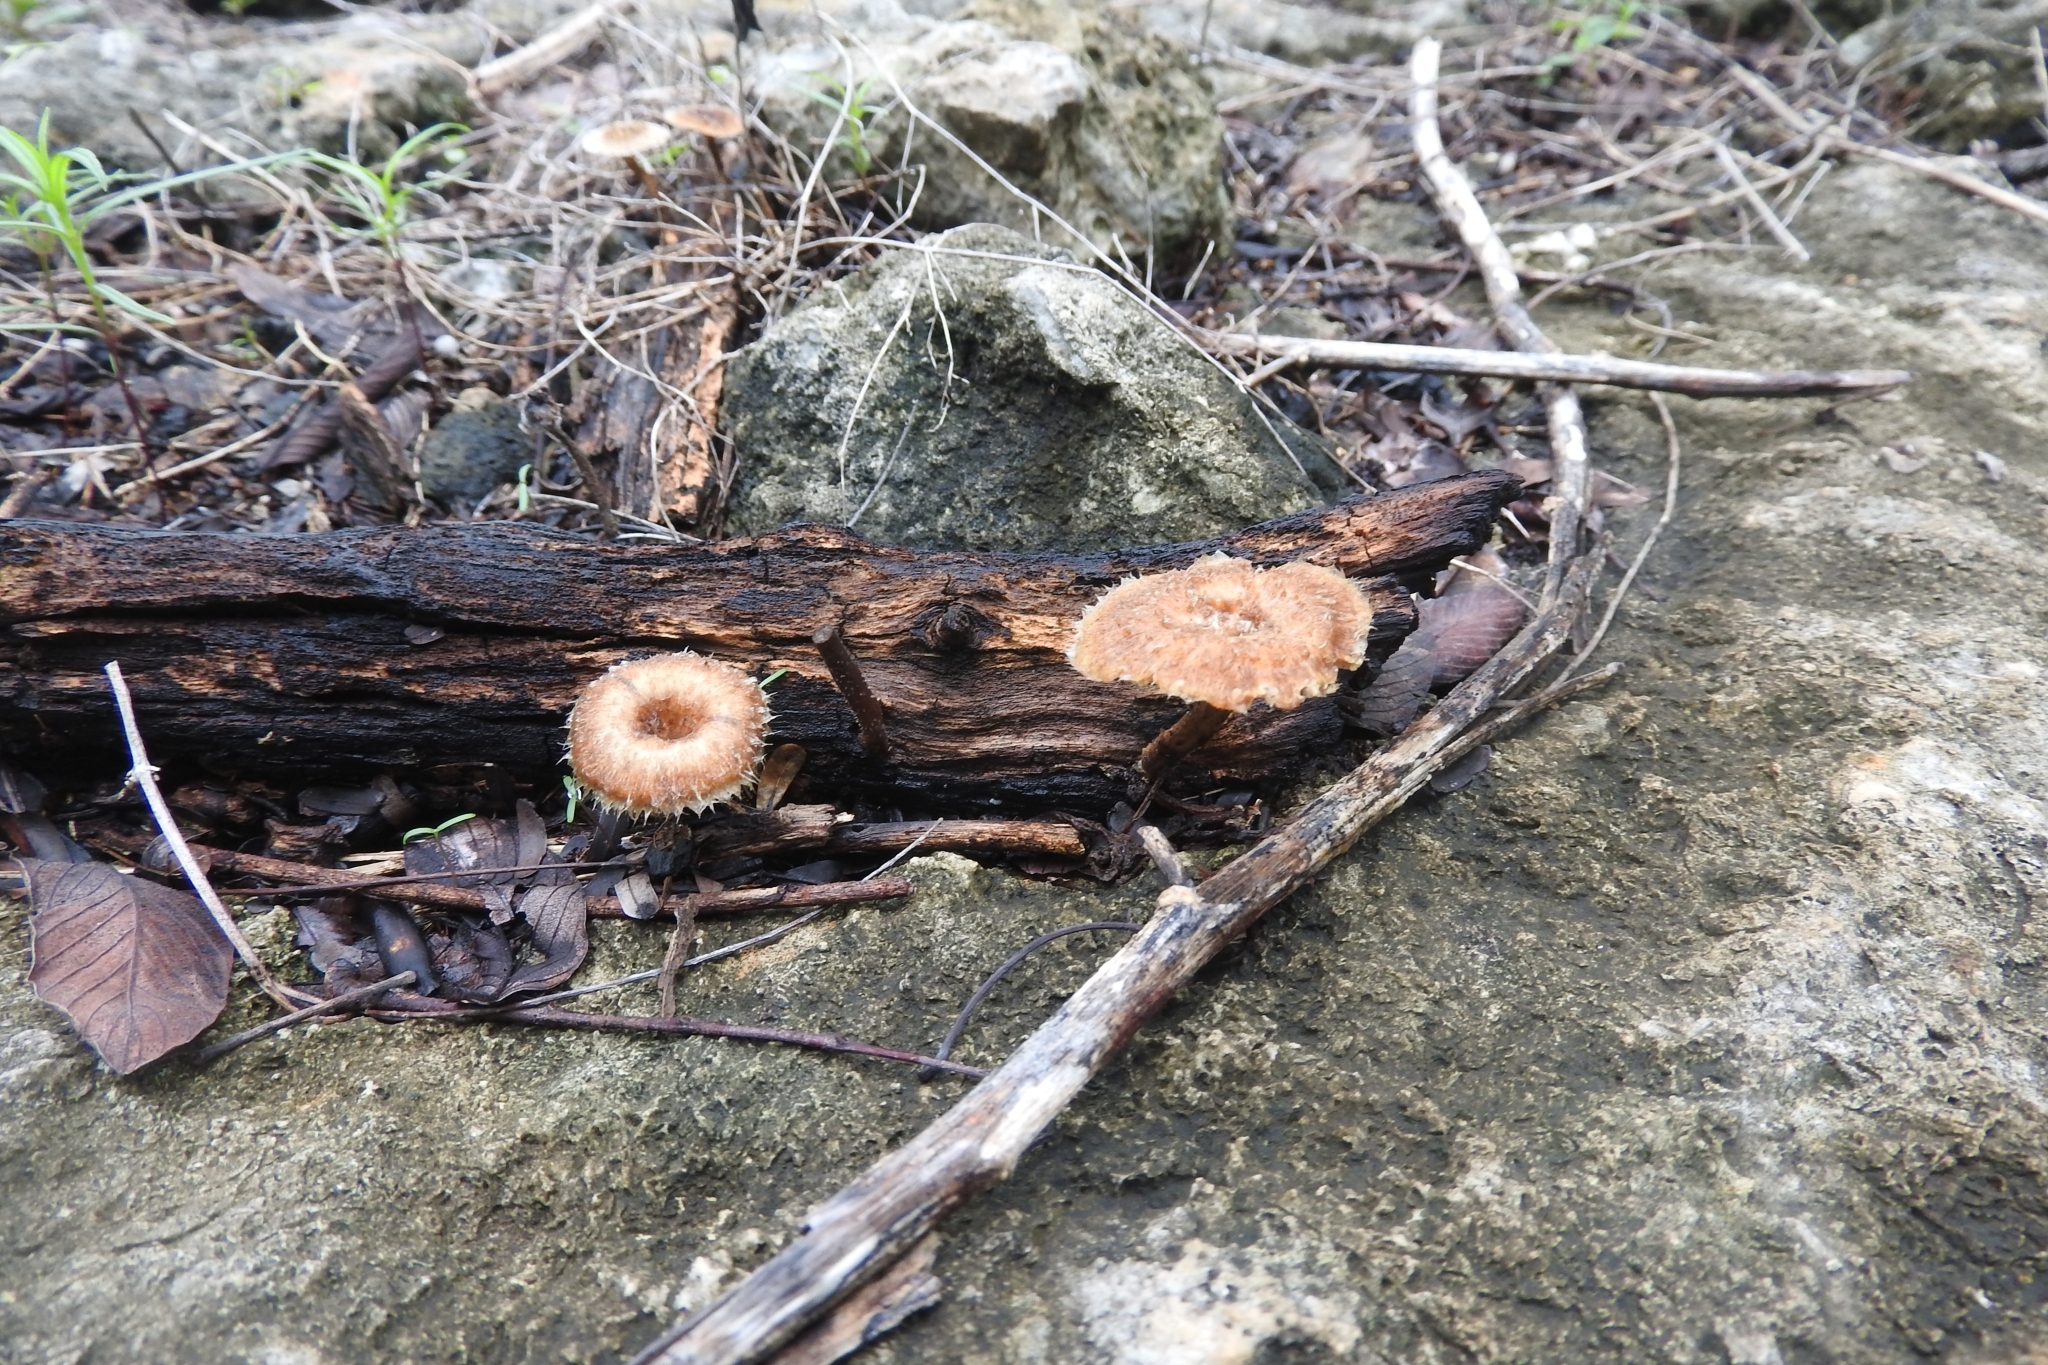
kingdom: Fungi
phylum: Basidiomycota
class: Agaricomycetes
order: Polyporales
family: Polyporaceae
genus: Lentinus
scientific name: Lentinus crinitus
